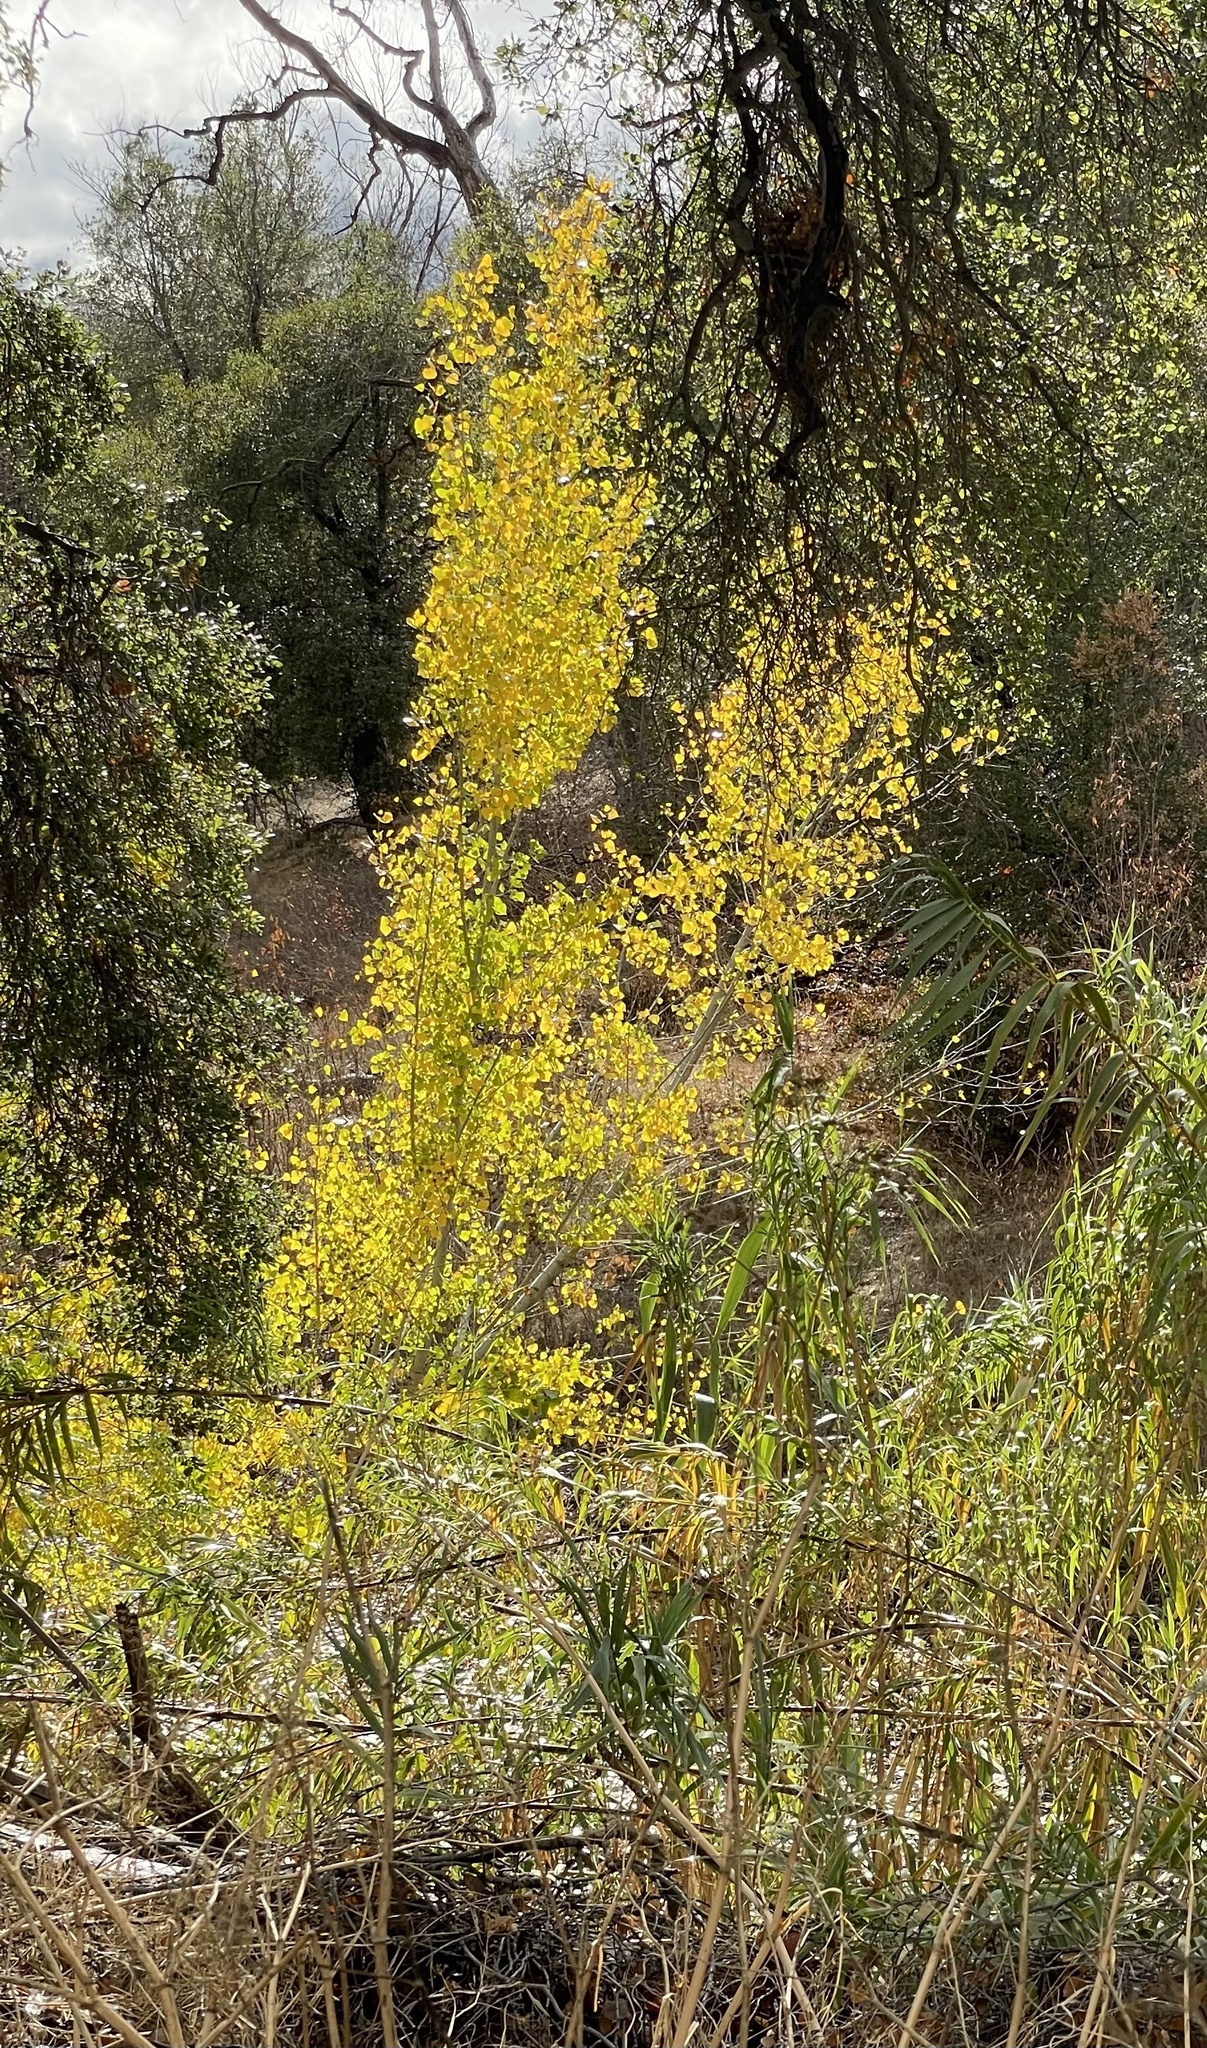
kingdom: Plantae
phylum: Tracheophyta
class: Magnoliopsida
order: Malpighiales
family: Salicaceae
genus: Populus
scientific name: Populus fremontii
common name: Fremont's cottonwood
